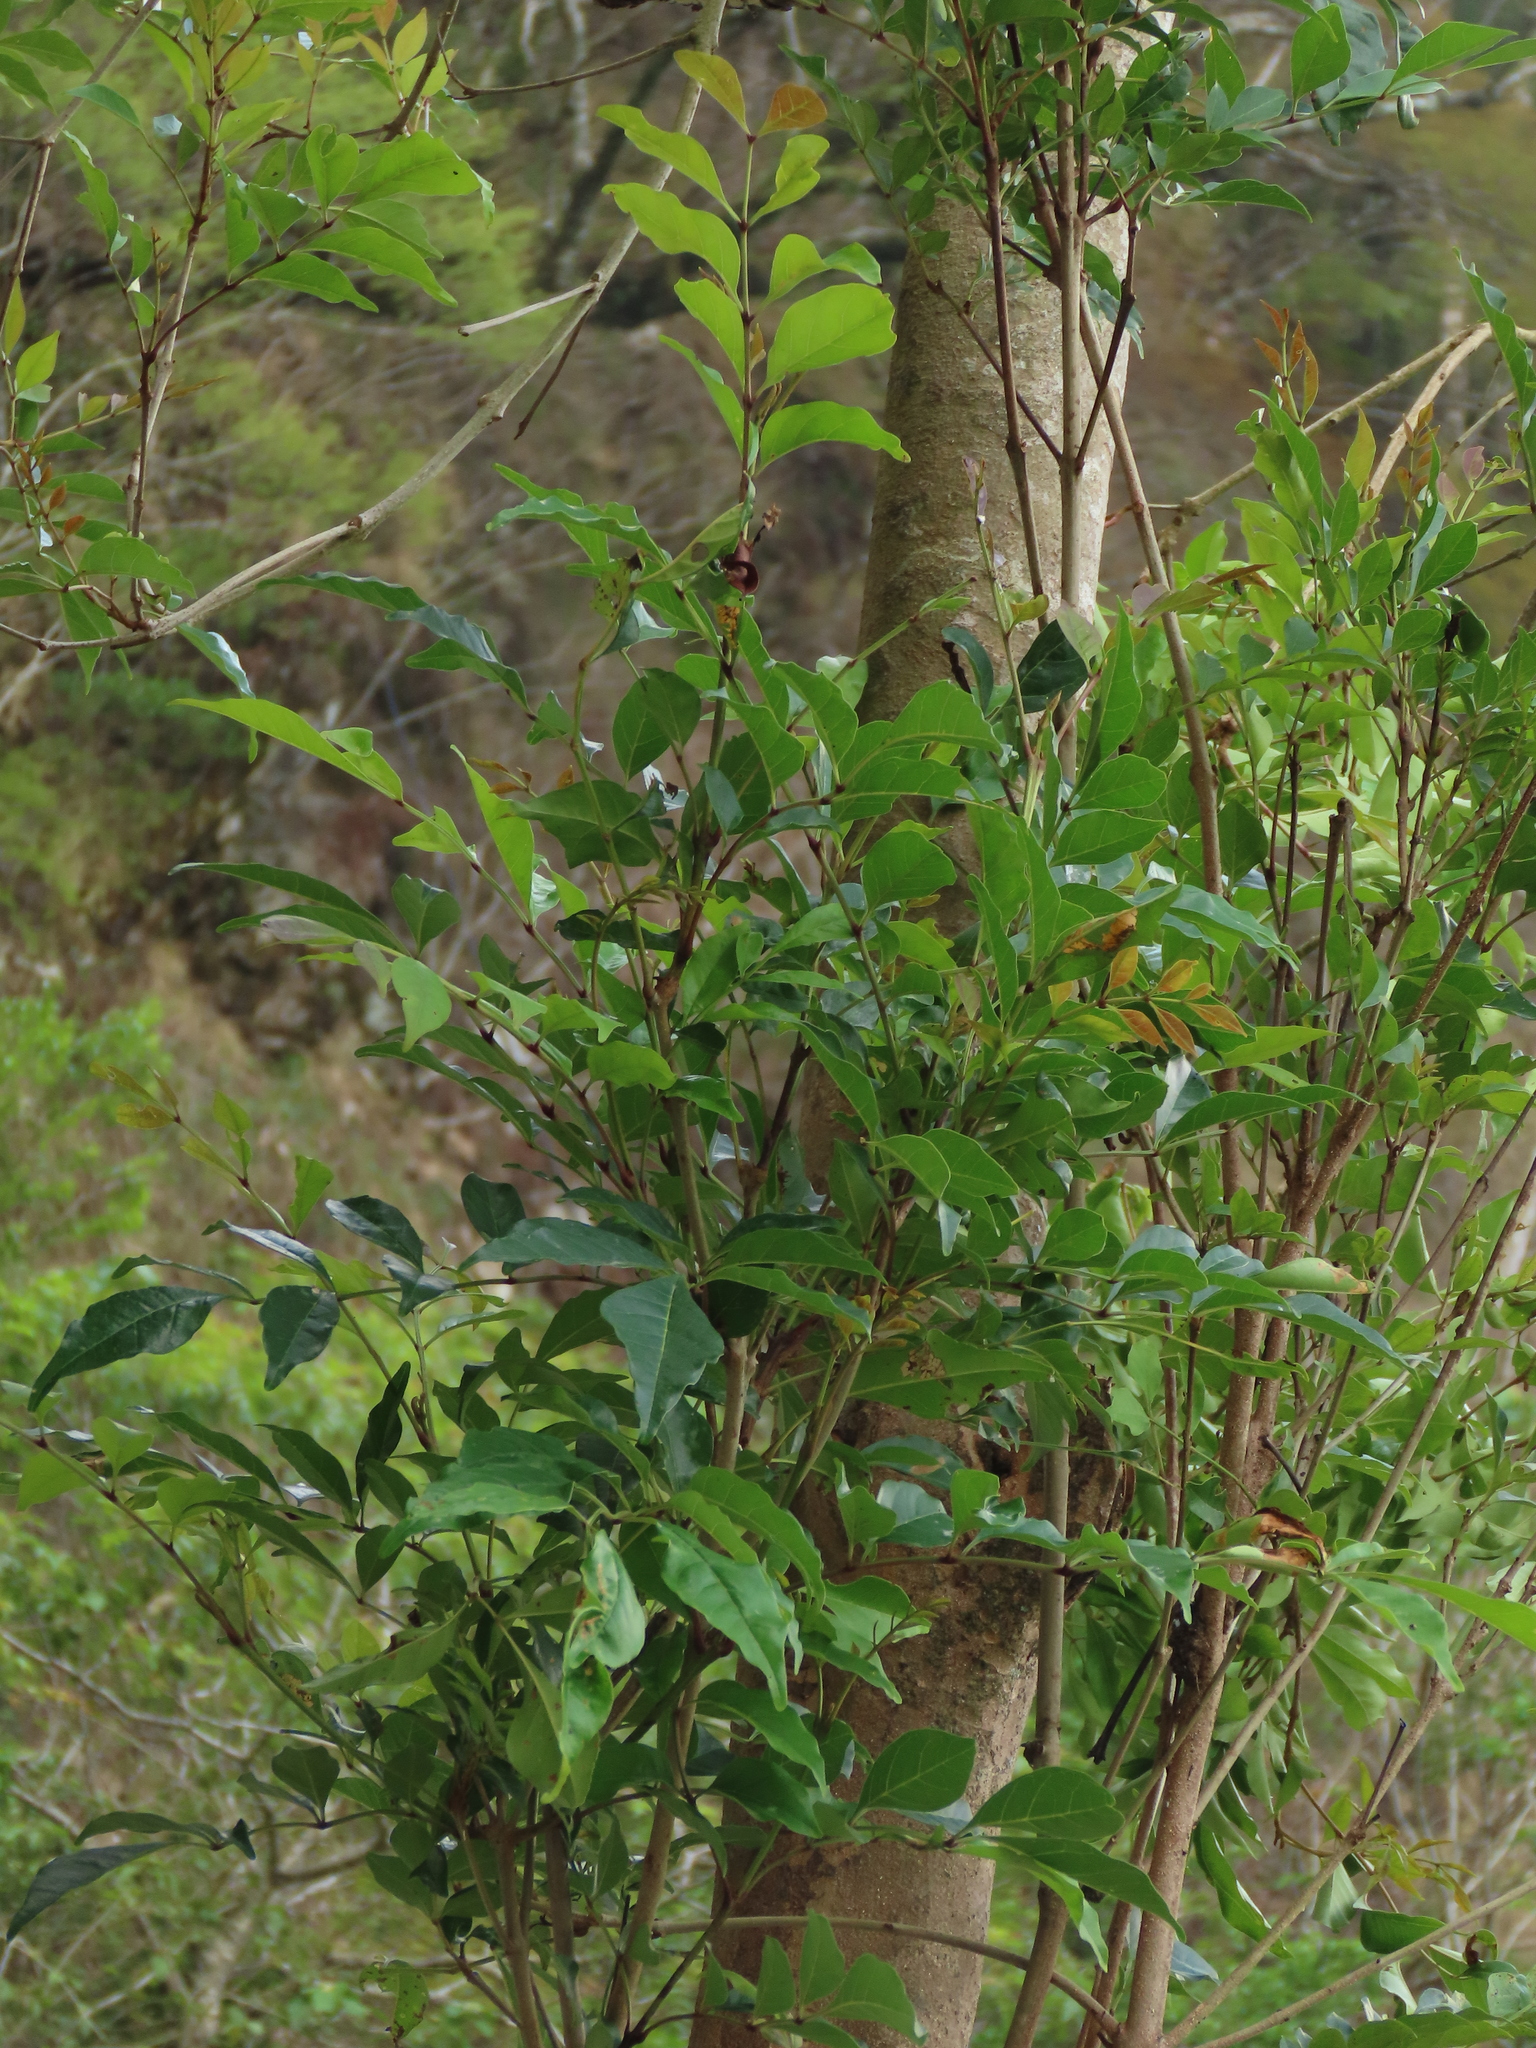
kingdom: Plantae
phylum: Tracheophyta
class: Magnoliopsida
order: Lamiales
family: Oleaceae
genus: Fraxinus
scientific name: Fraxinus griffithii
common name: Himalayan ash
